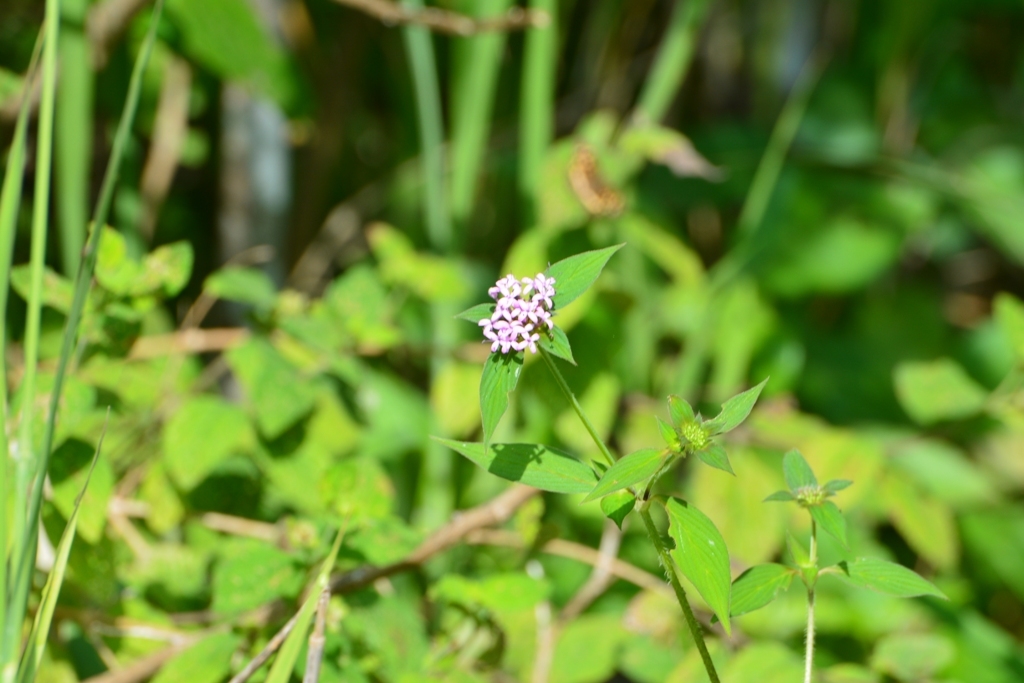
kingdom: Plantae
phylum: Tracheophyta
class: Magnoliopsida
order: Gentianales
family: Rubiaceae
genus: Crusea
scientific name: Crusea longiflora
